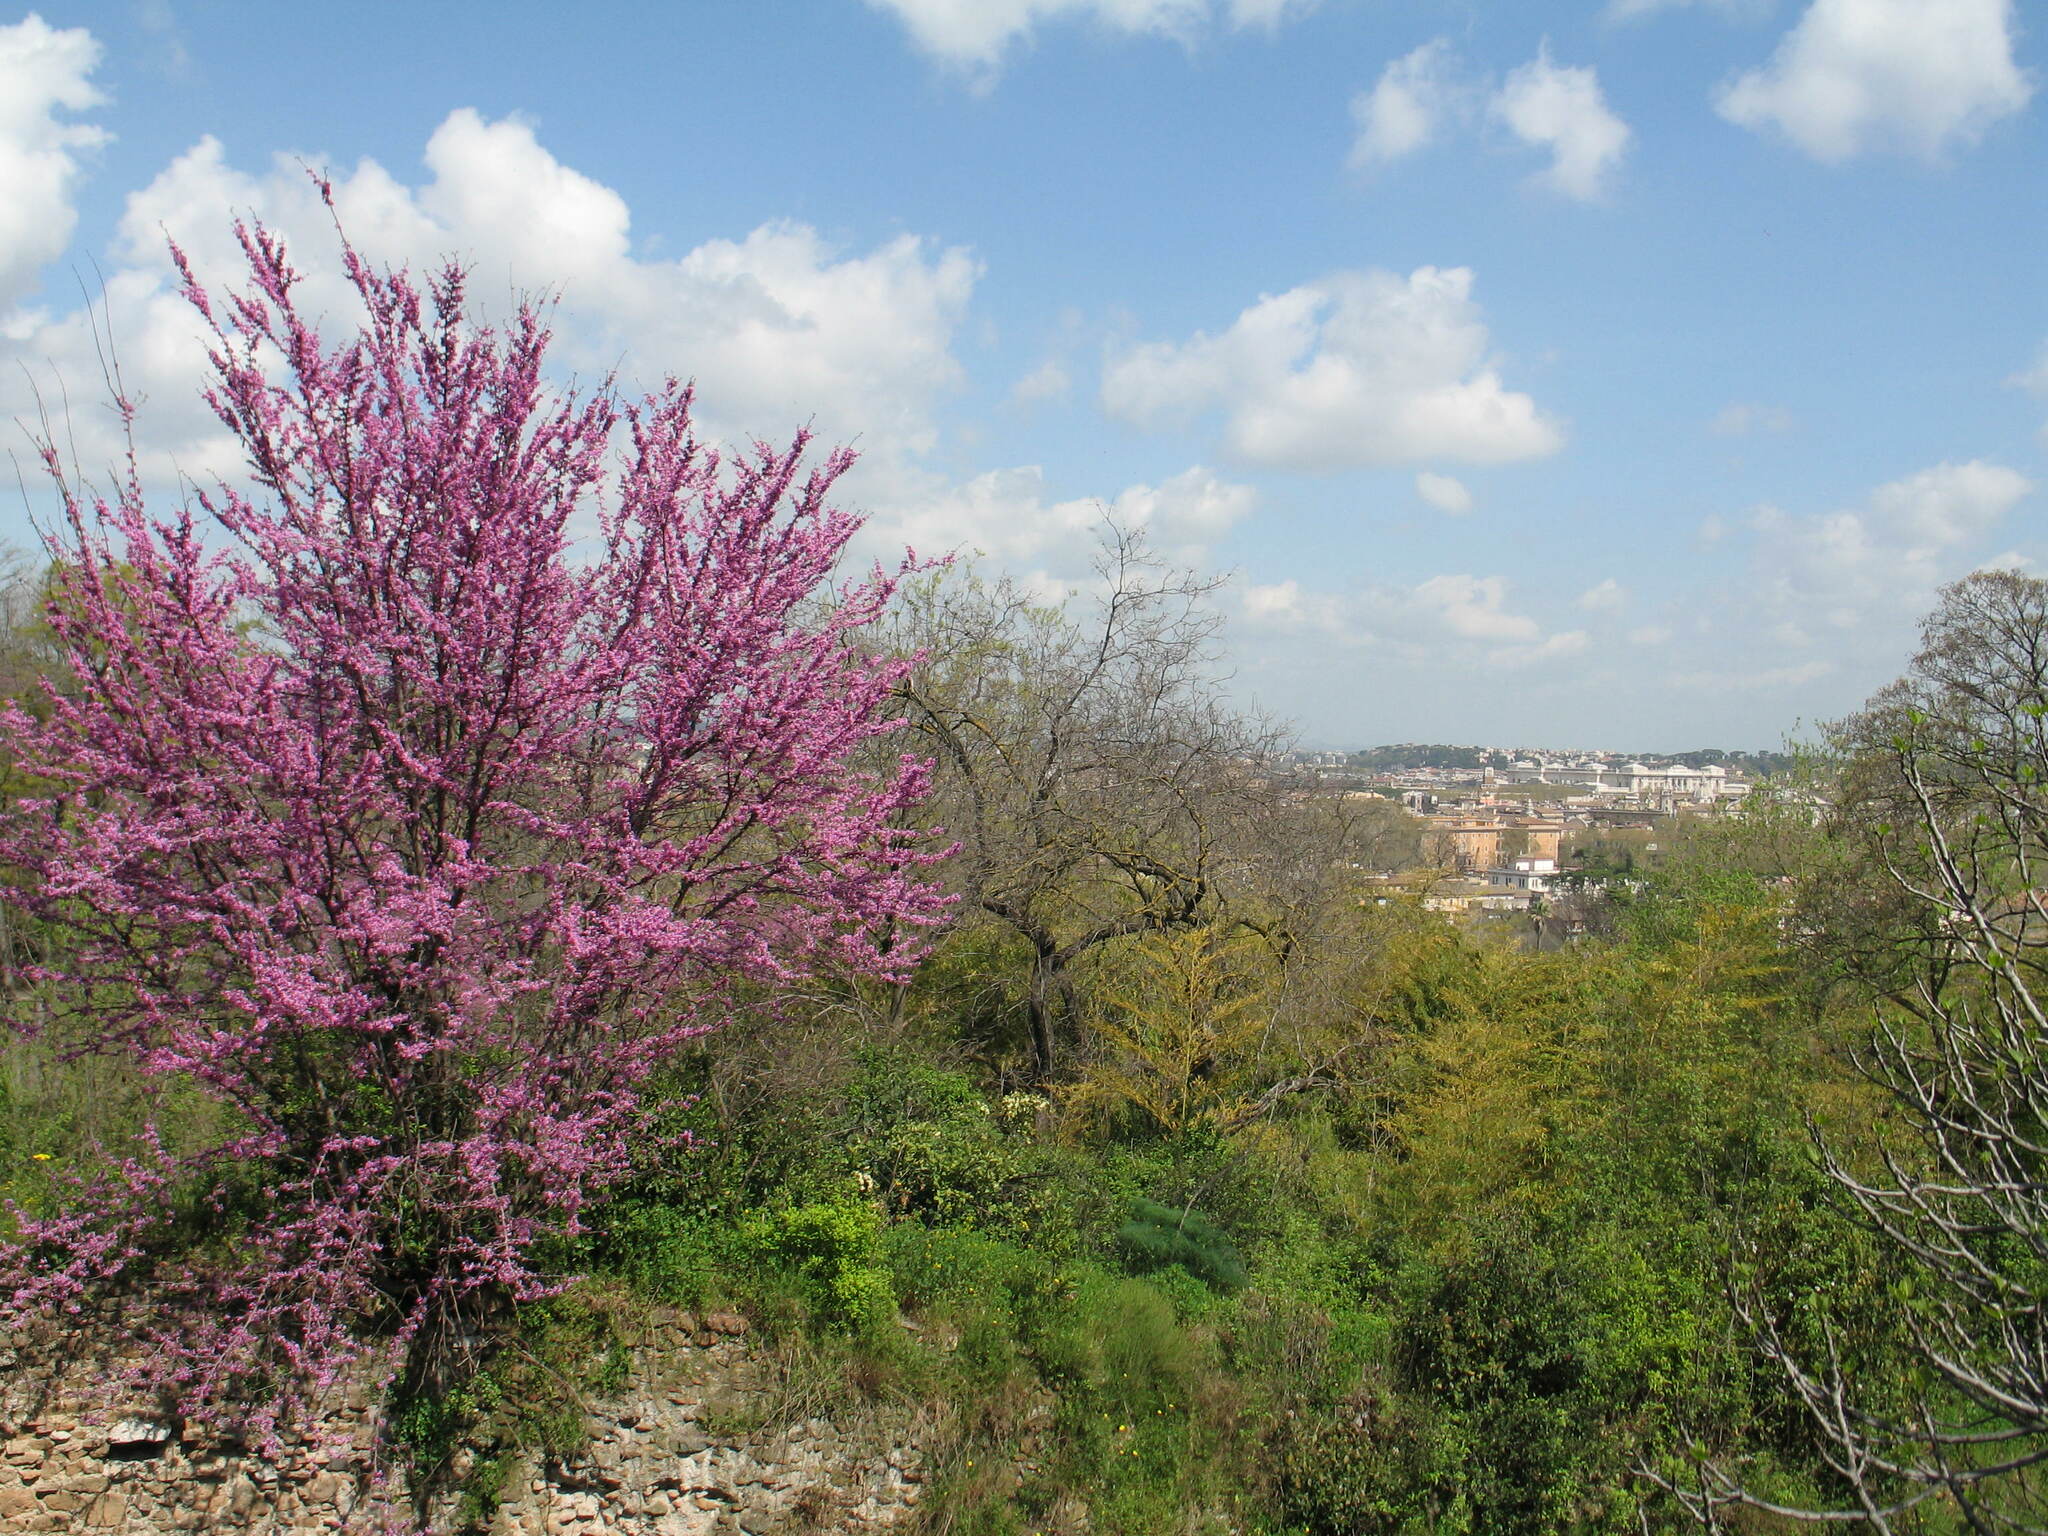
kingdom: Plantae
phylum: Tracheophyta
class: Magnoliopsida
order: Fabales
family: Fabaceae
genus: Cercis
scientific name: Cercis siliquastrum
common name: Judas tree
